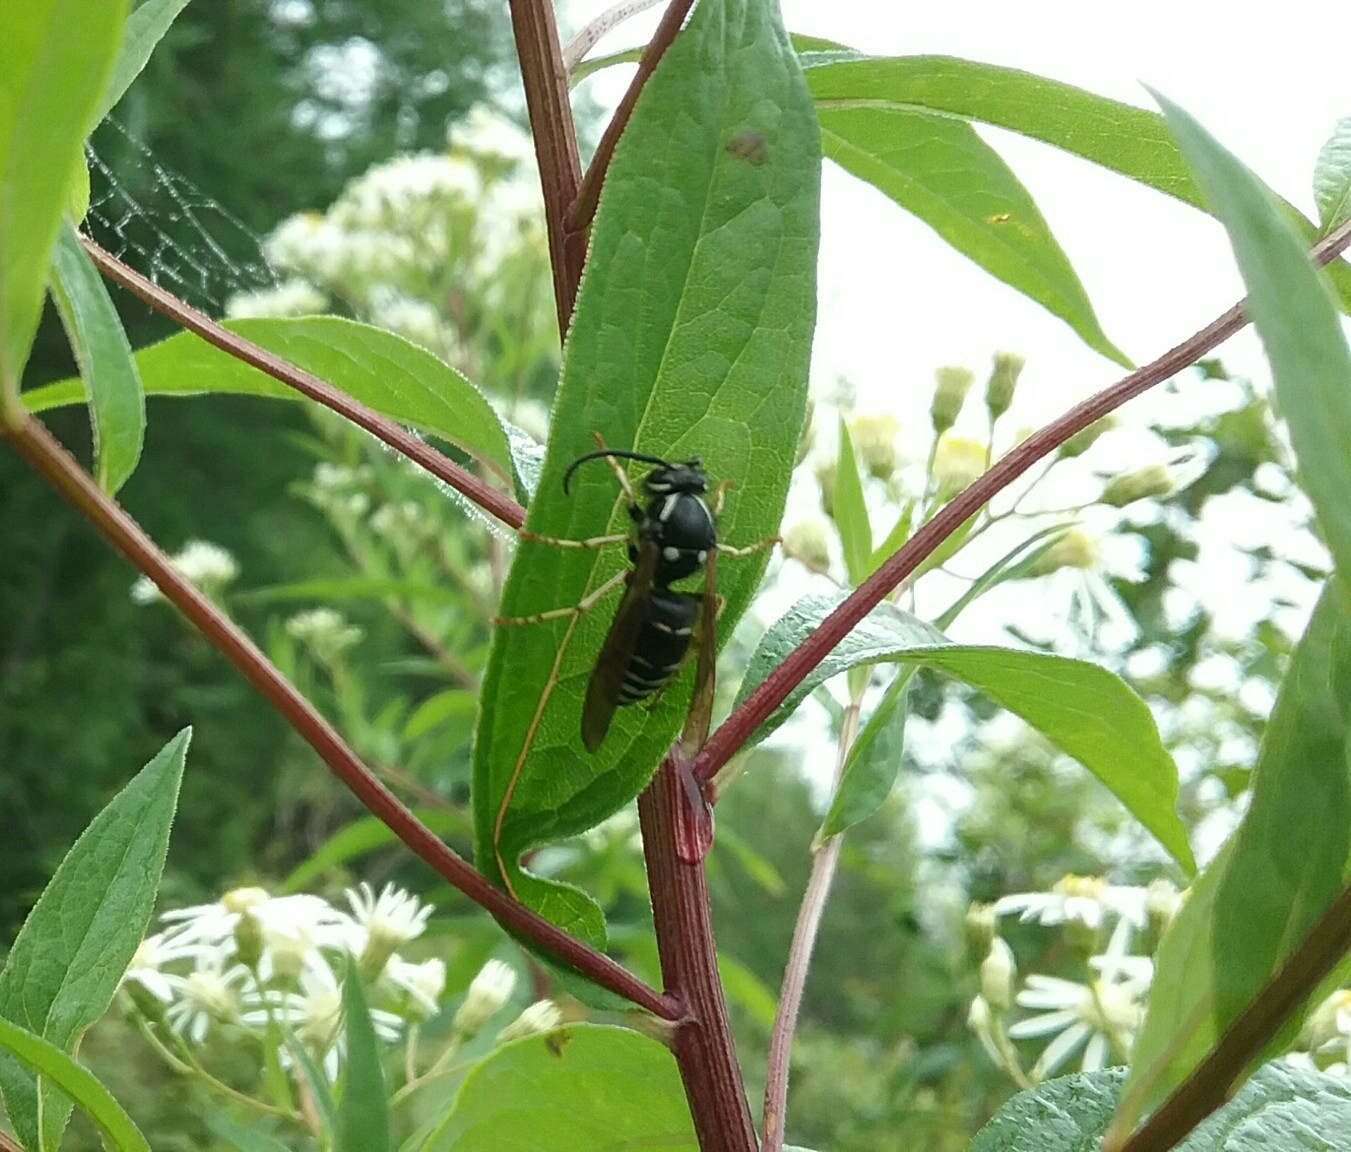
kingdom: Animalia
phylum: Arthropoda
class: Insecta
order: Hymenoptera
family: Vespidae
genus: Dolichovespula
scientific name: Dolichovespula adulterina
